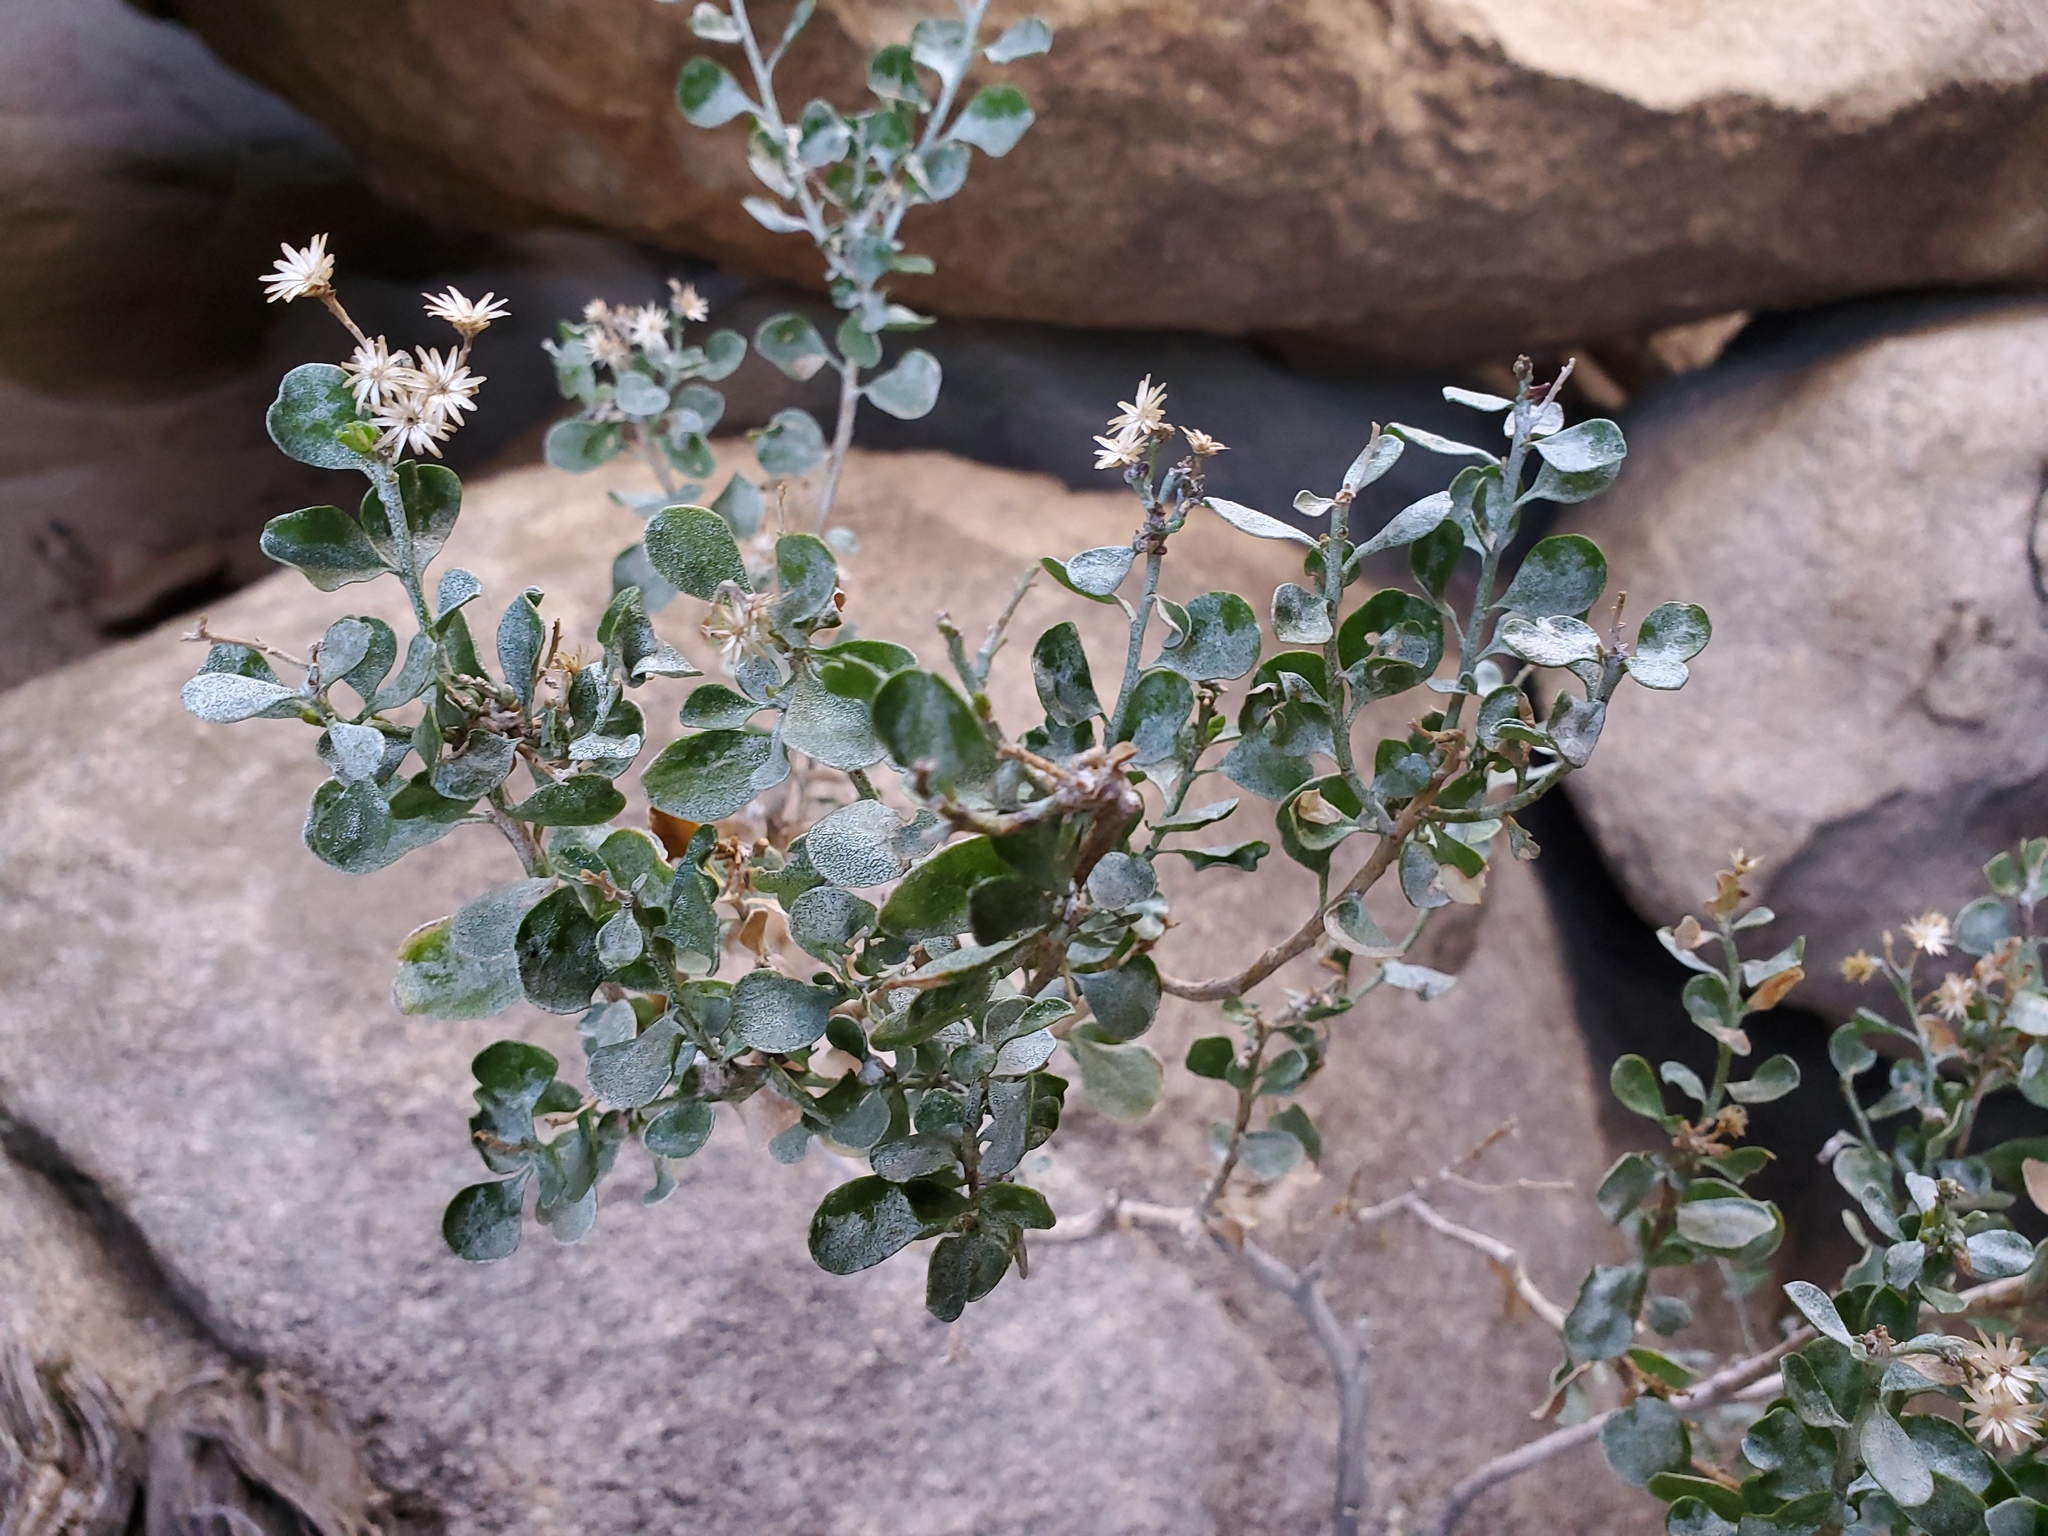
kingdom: Plantae
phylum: Tracheophyta
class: Magnoliopsida
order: Asterales
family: Asteraceae
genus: Ericameria
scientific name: Ericameria cuneata
